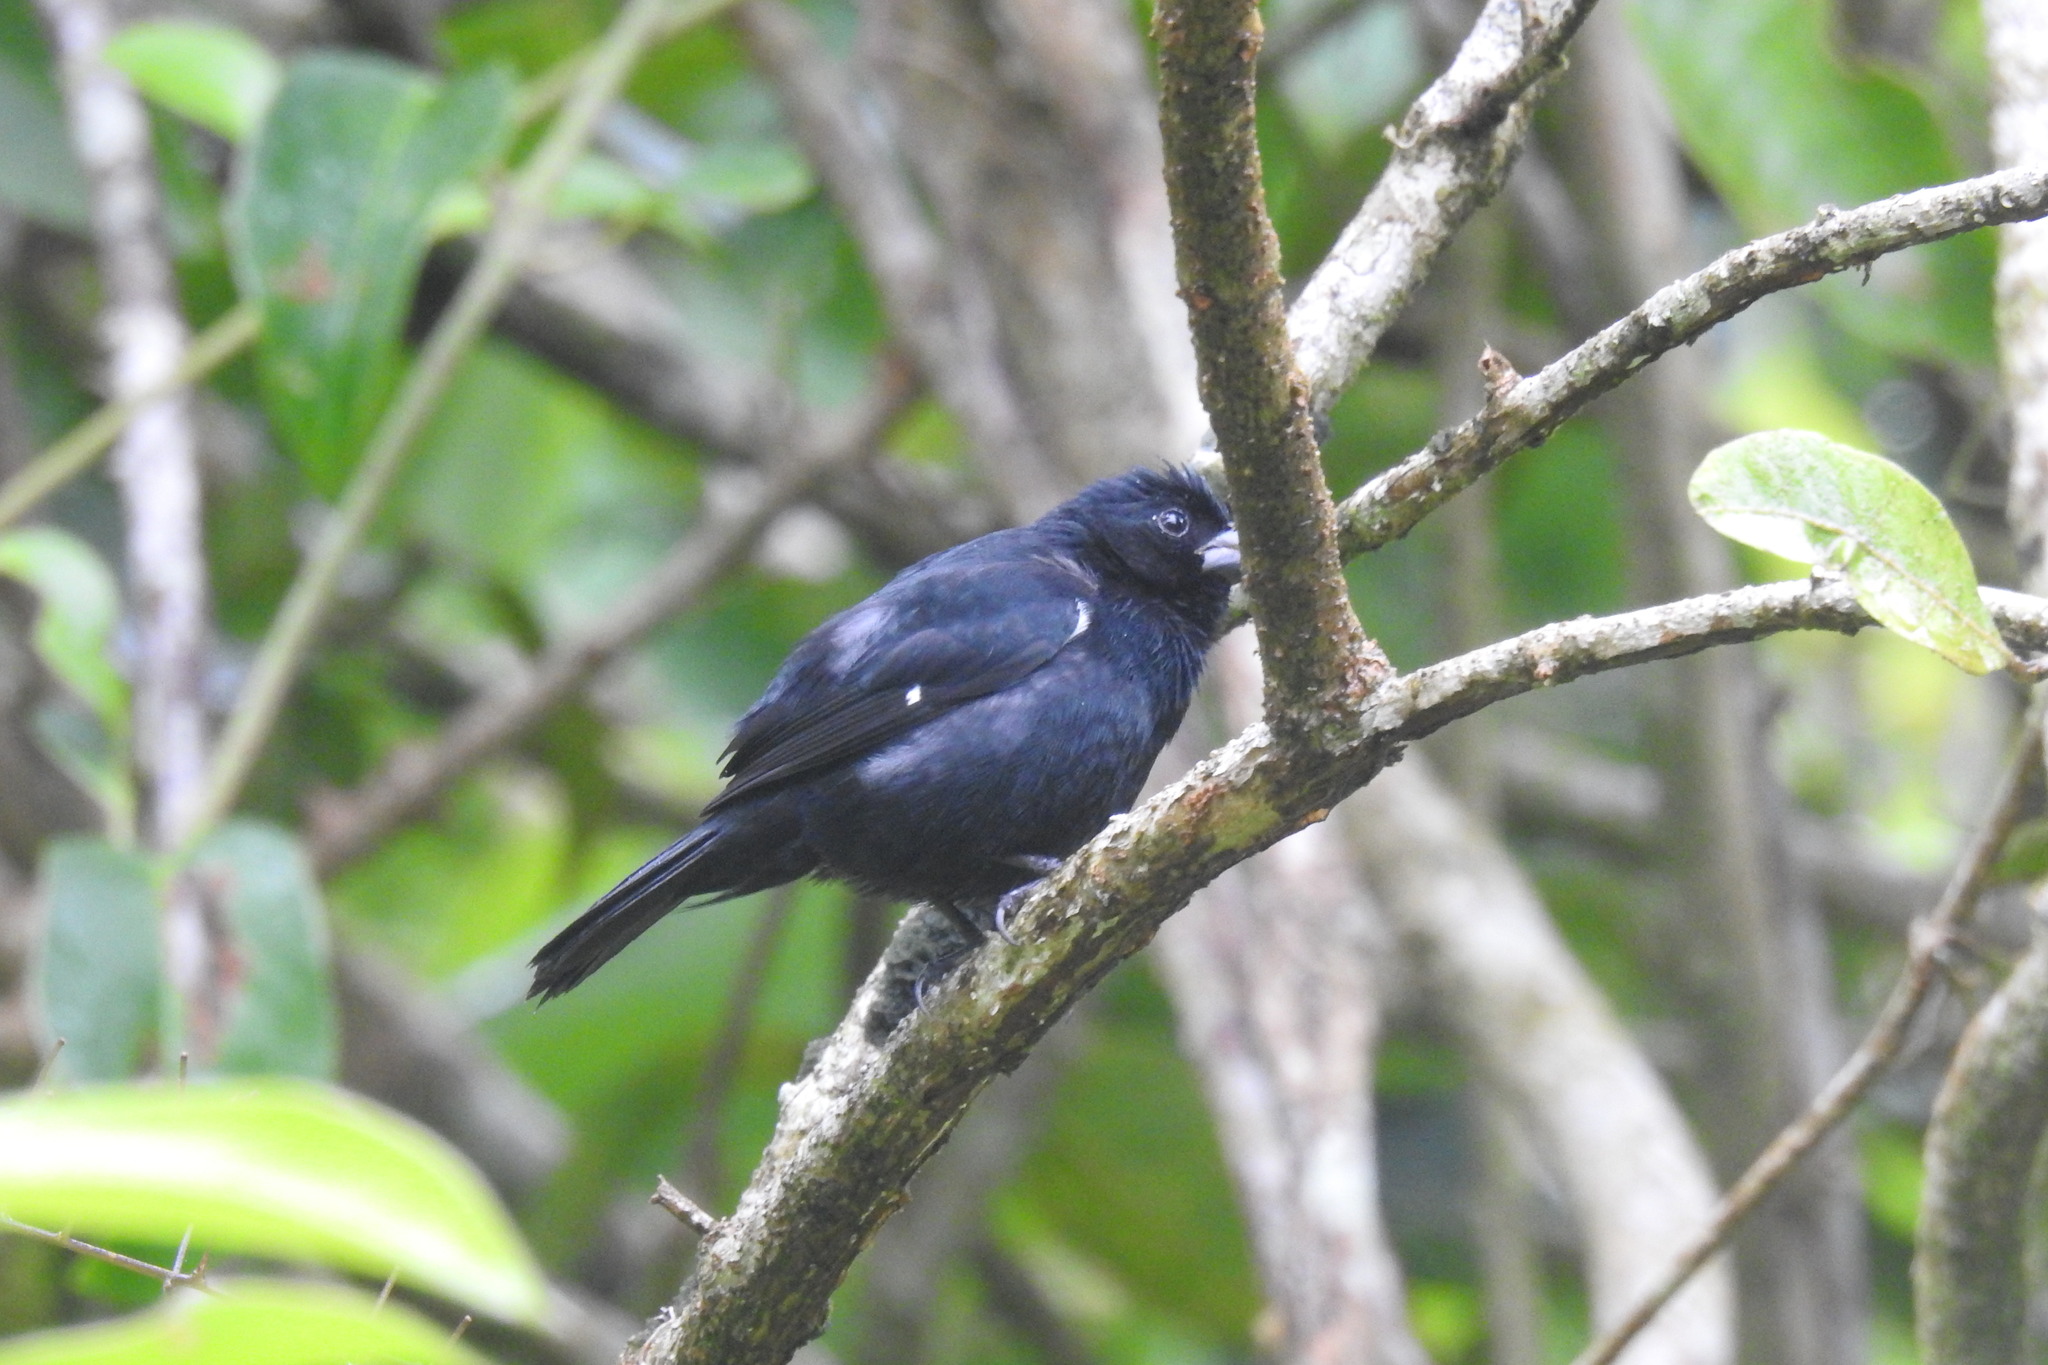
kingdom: Animalia
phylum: Chordata
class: Aves
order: Passeriformes
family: Thraupidae
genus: Sporophila
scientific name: Sporophila corvina
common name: Variable seedeater
